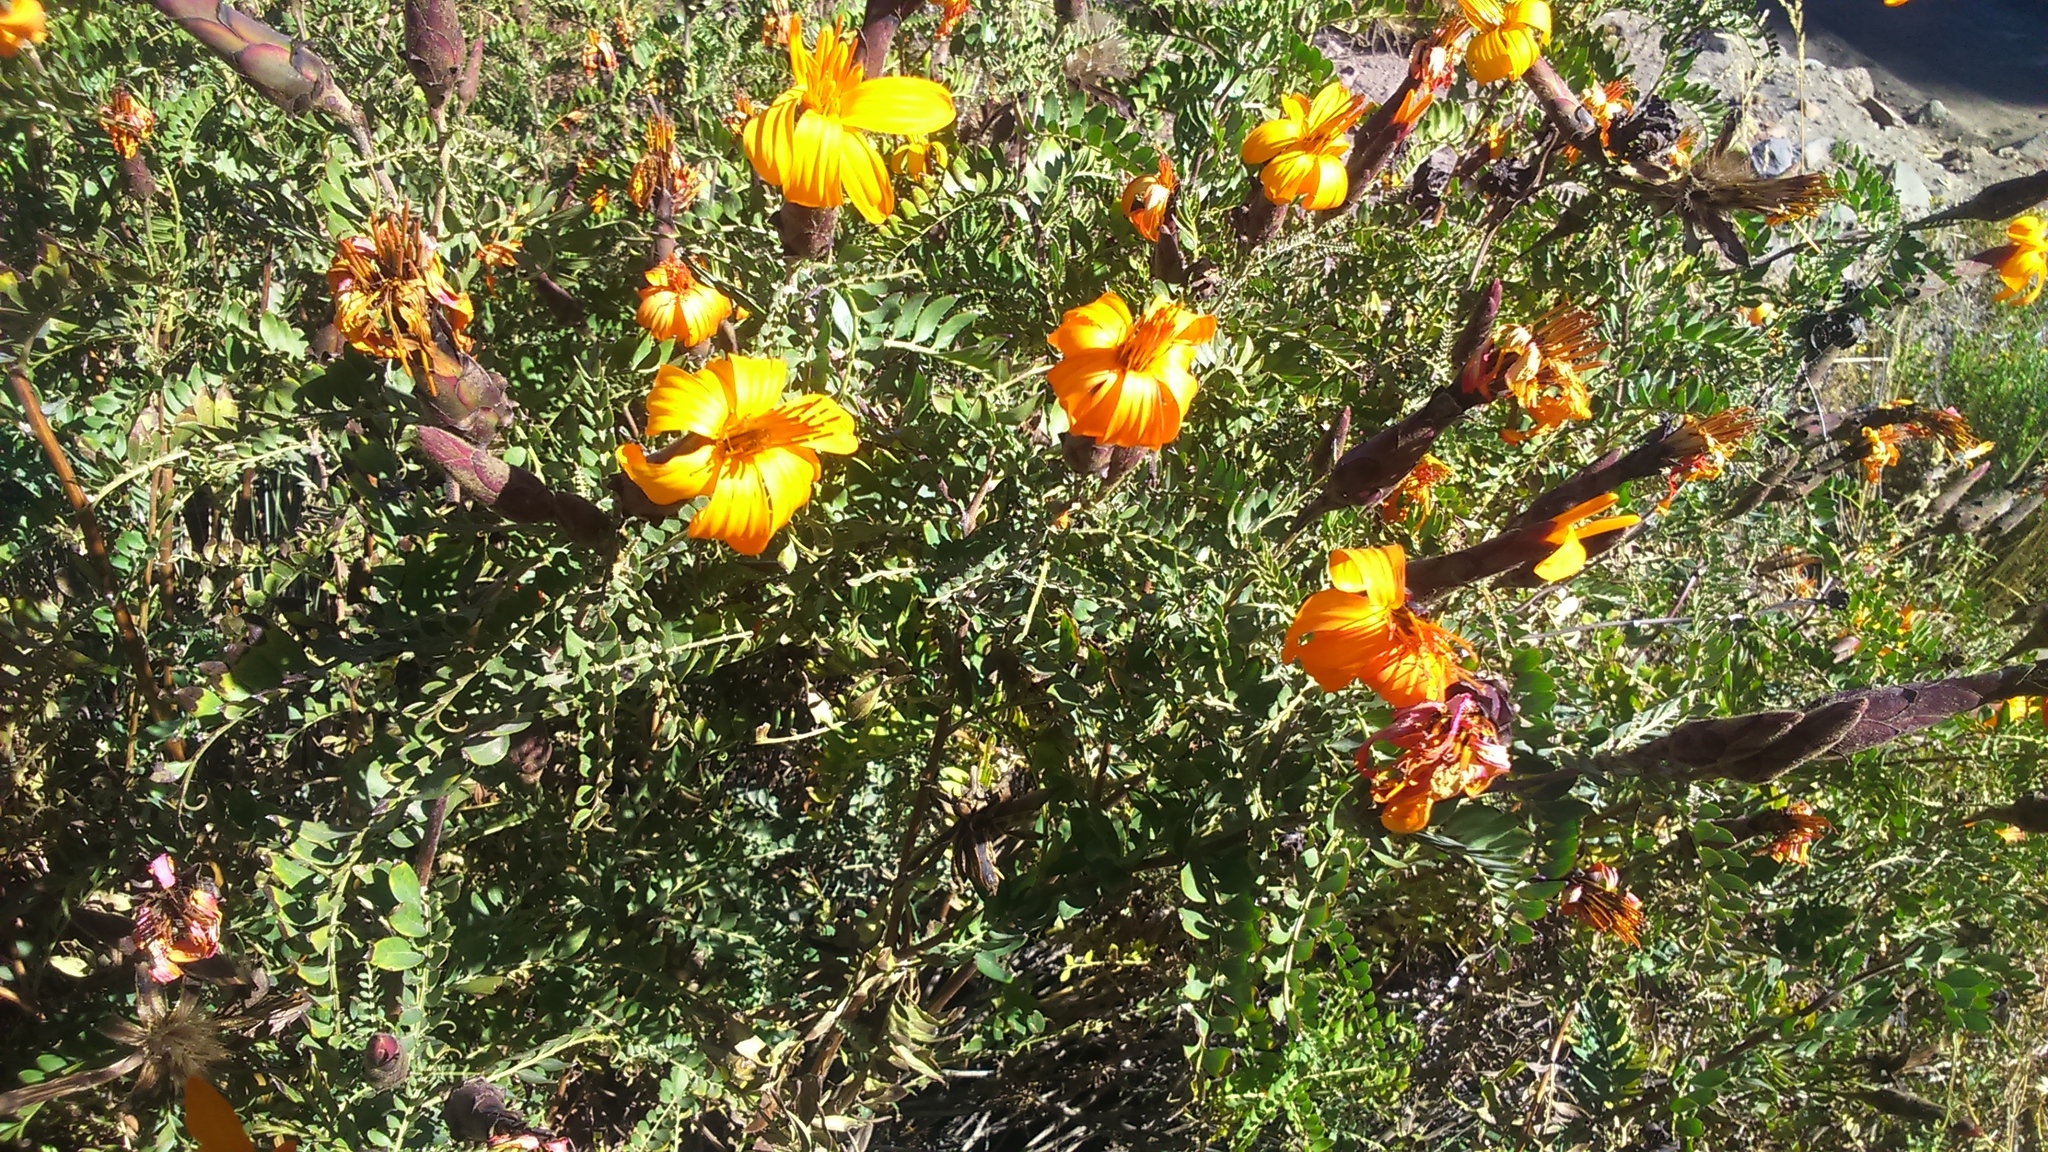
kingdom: Plantae
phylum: Tracheophyta
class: Magnoliopsida
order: Asterales
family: Asteraceae
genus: Mutisia
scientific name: Mutisia acuminata
